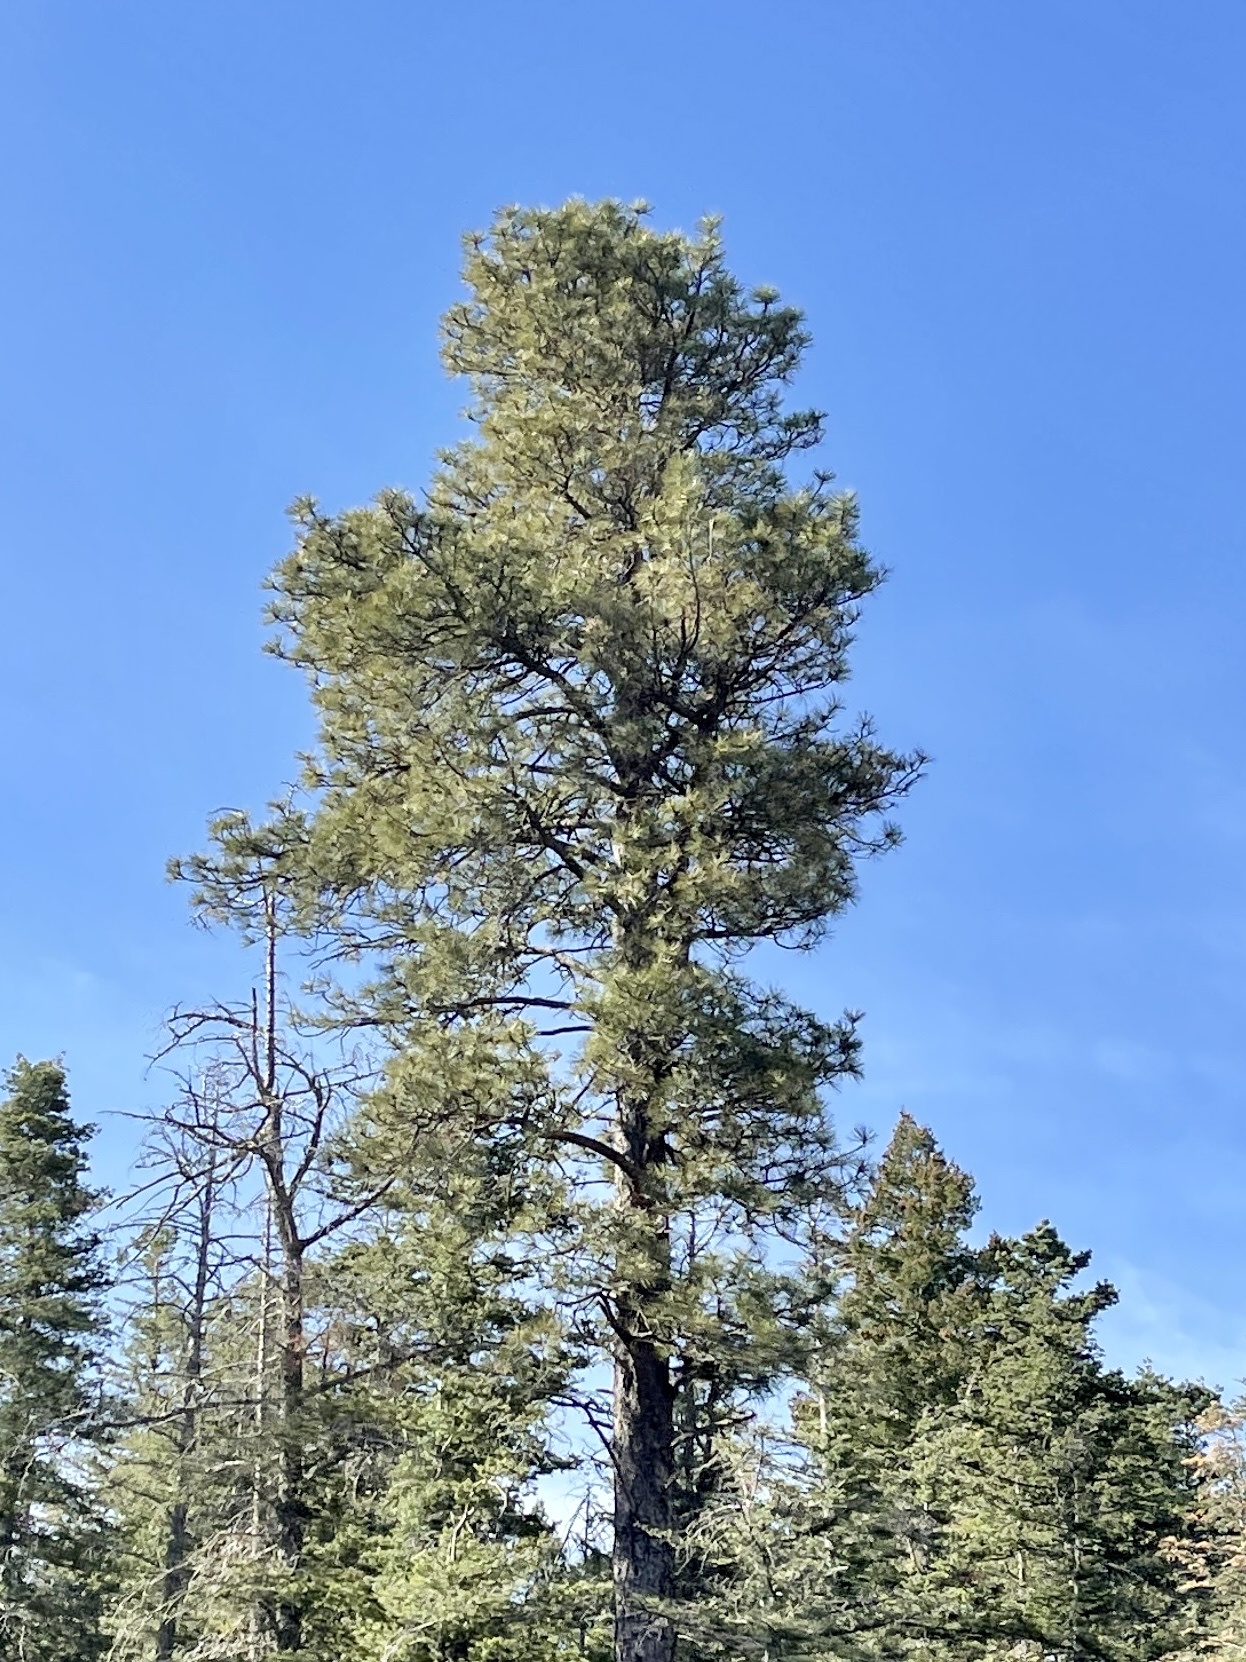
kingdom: Plantae
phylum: Tracheophyta
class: Pinopsida
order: Pinales
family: Pinaceae
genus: Pinus
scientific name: Pinus ponderosa
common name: Western yellow-pine
